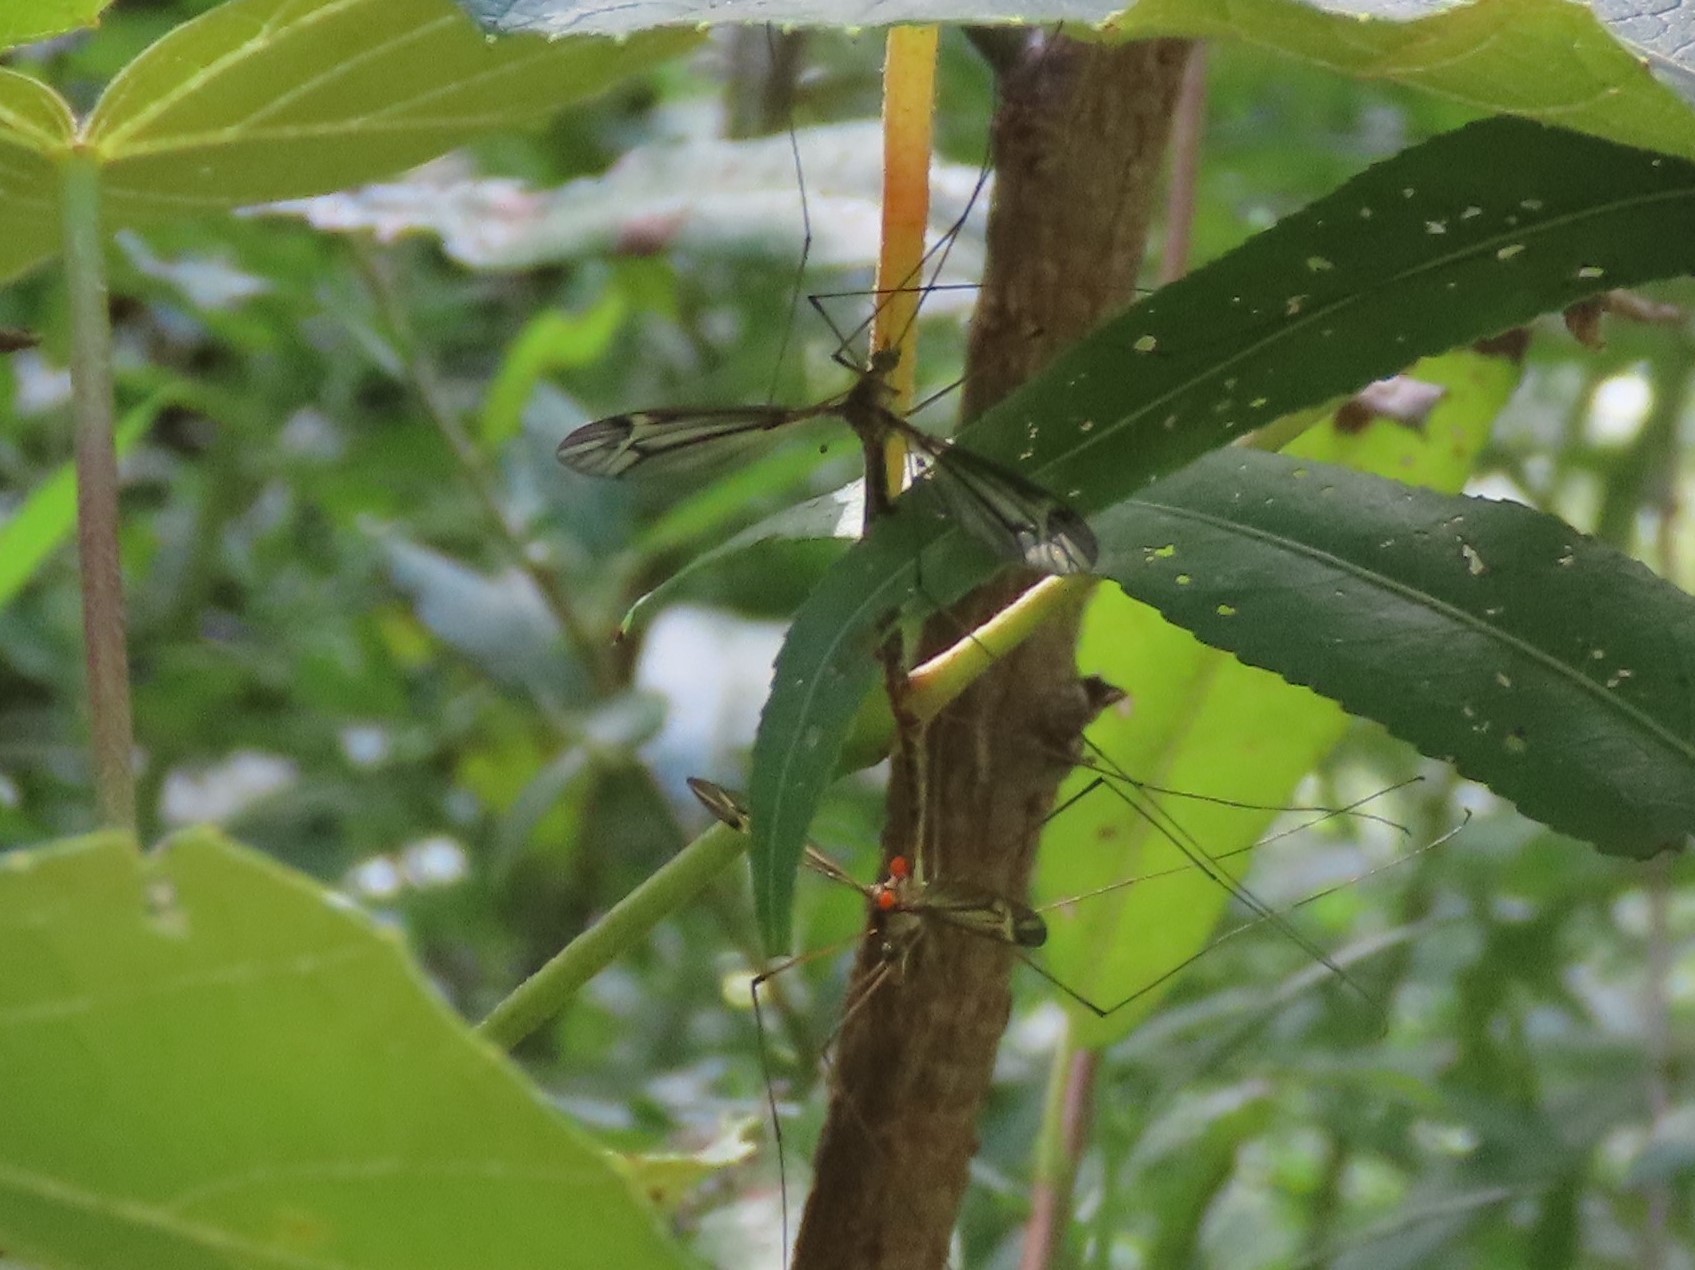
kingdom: Animalia
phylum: Arthropoda
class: Insecta
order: Diptera
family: Tipulidae
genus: Tipula
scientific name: Tipula concava
